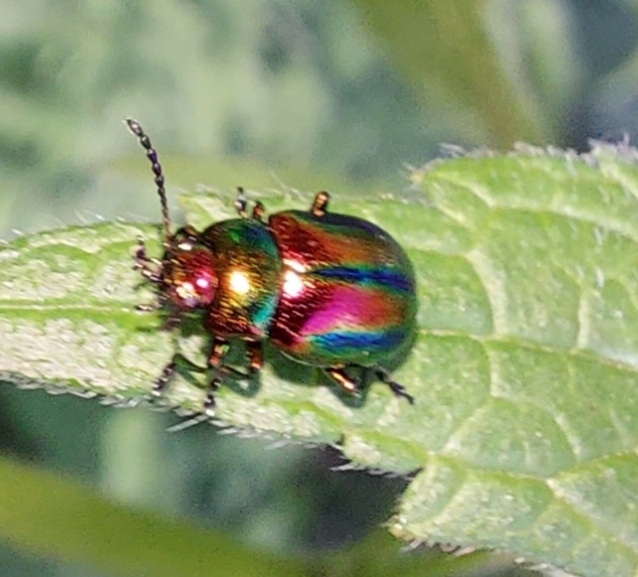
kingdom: Animalia
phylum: Arthropoda
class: Insecta
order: Coleoptera
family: Chrysomelidae
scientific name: Chrysomelidae
